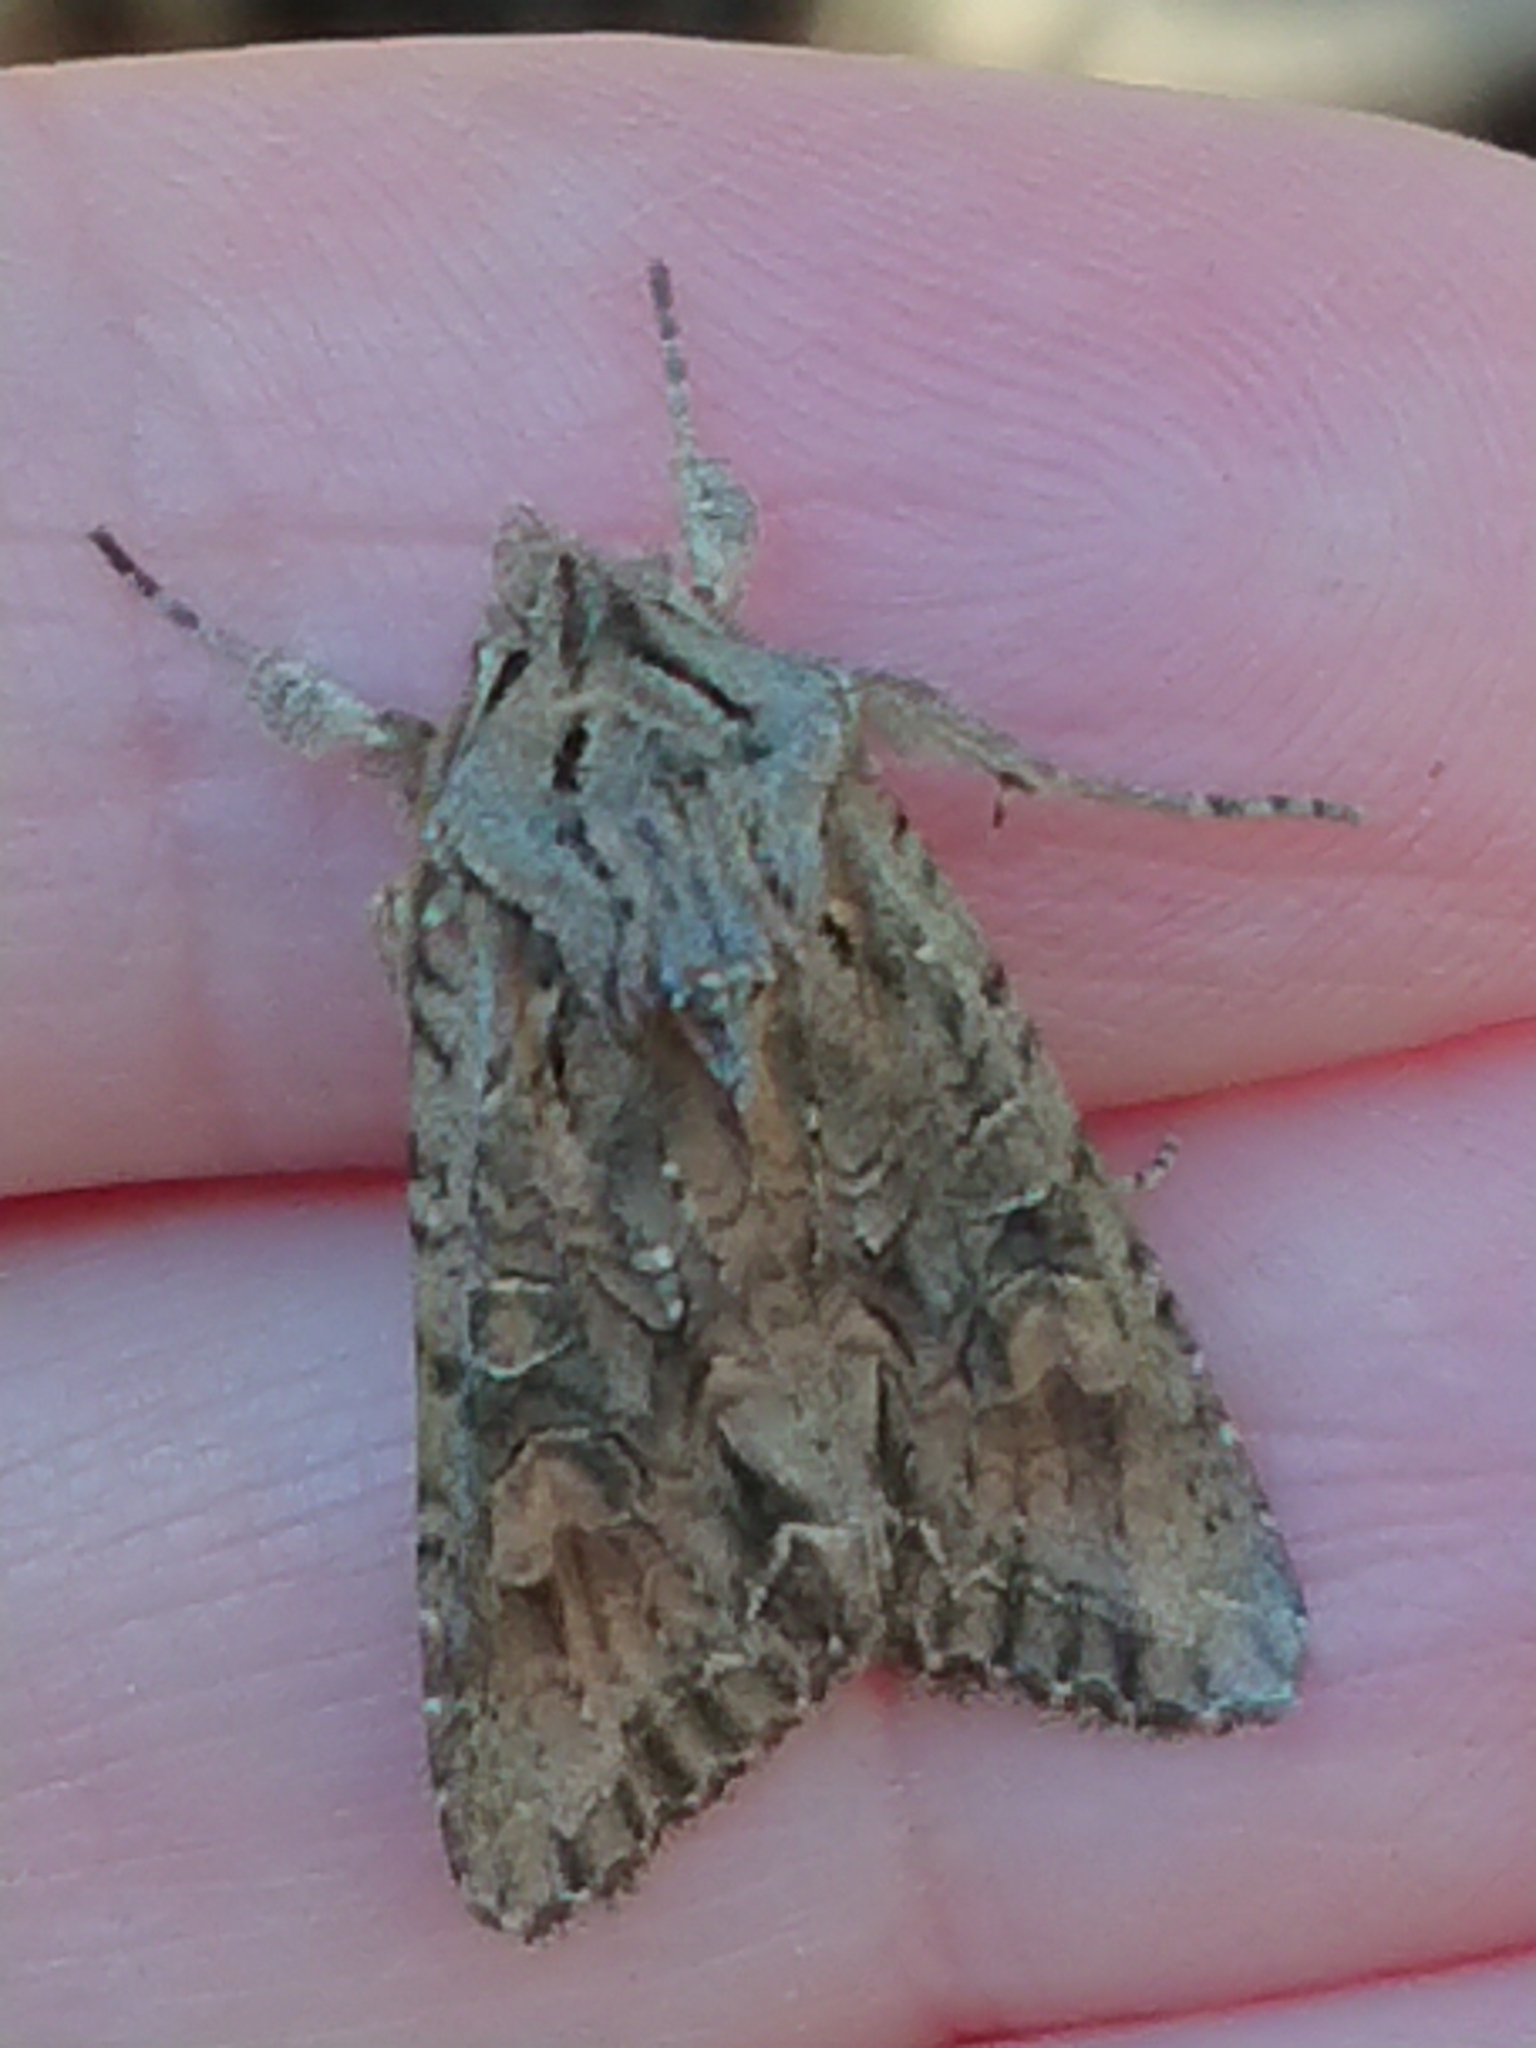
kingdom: Animalia
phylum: Arthropoda
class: Insecta
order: Lepidoptera
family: Noctuidae
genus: Ichneutica
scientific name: Ichneutica mutans
